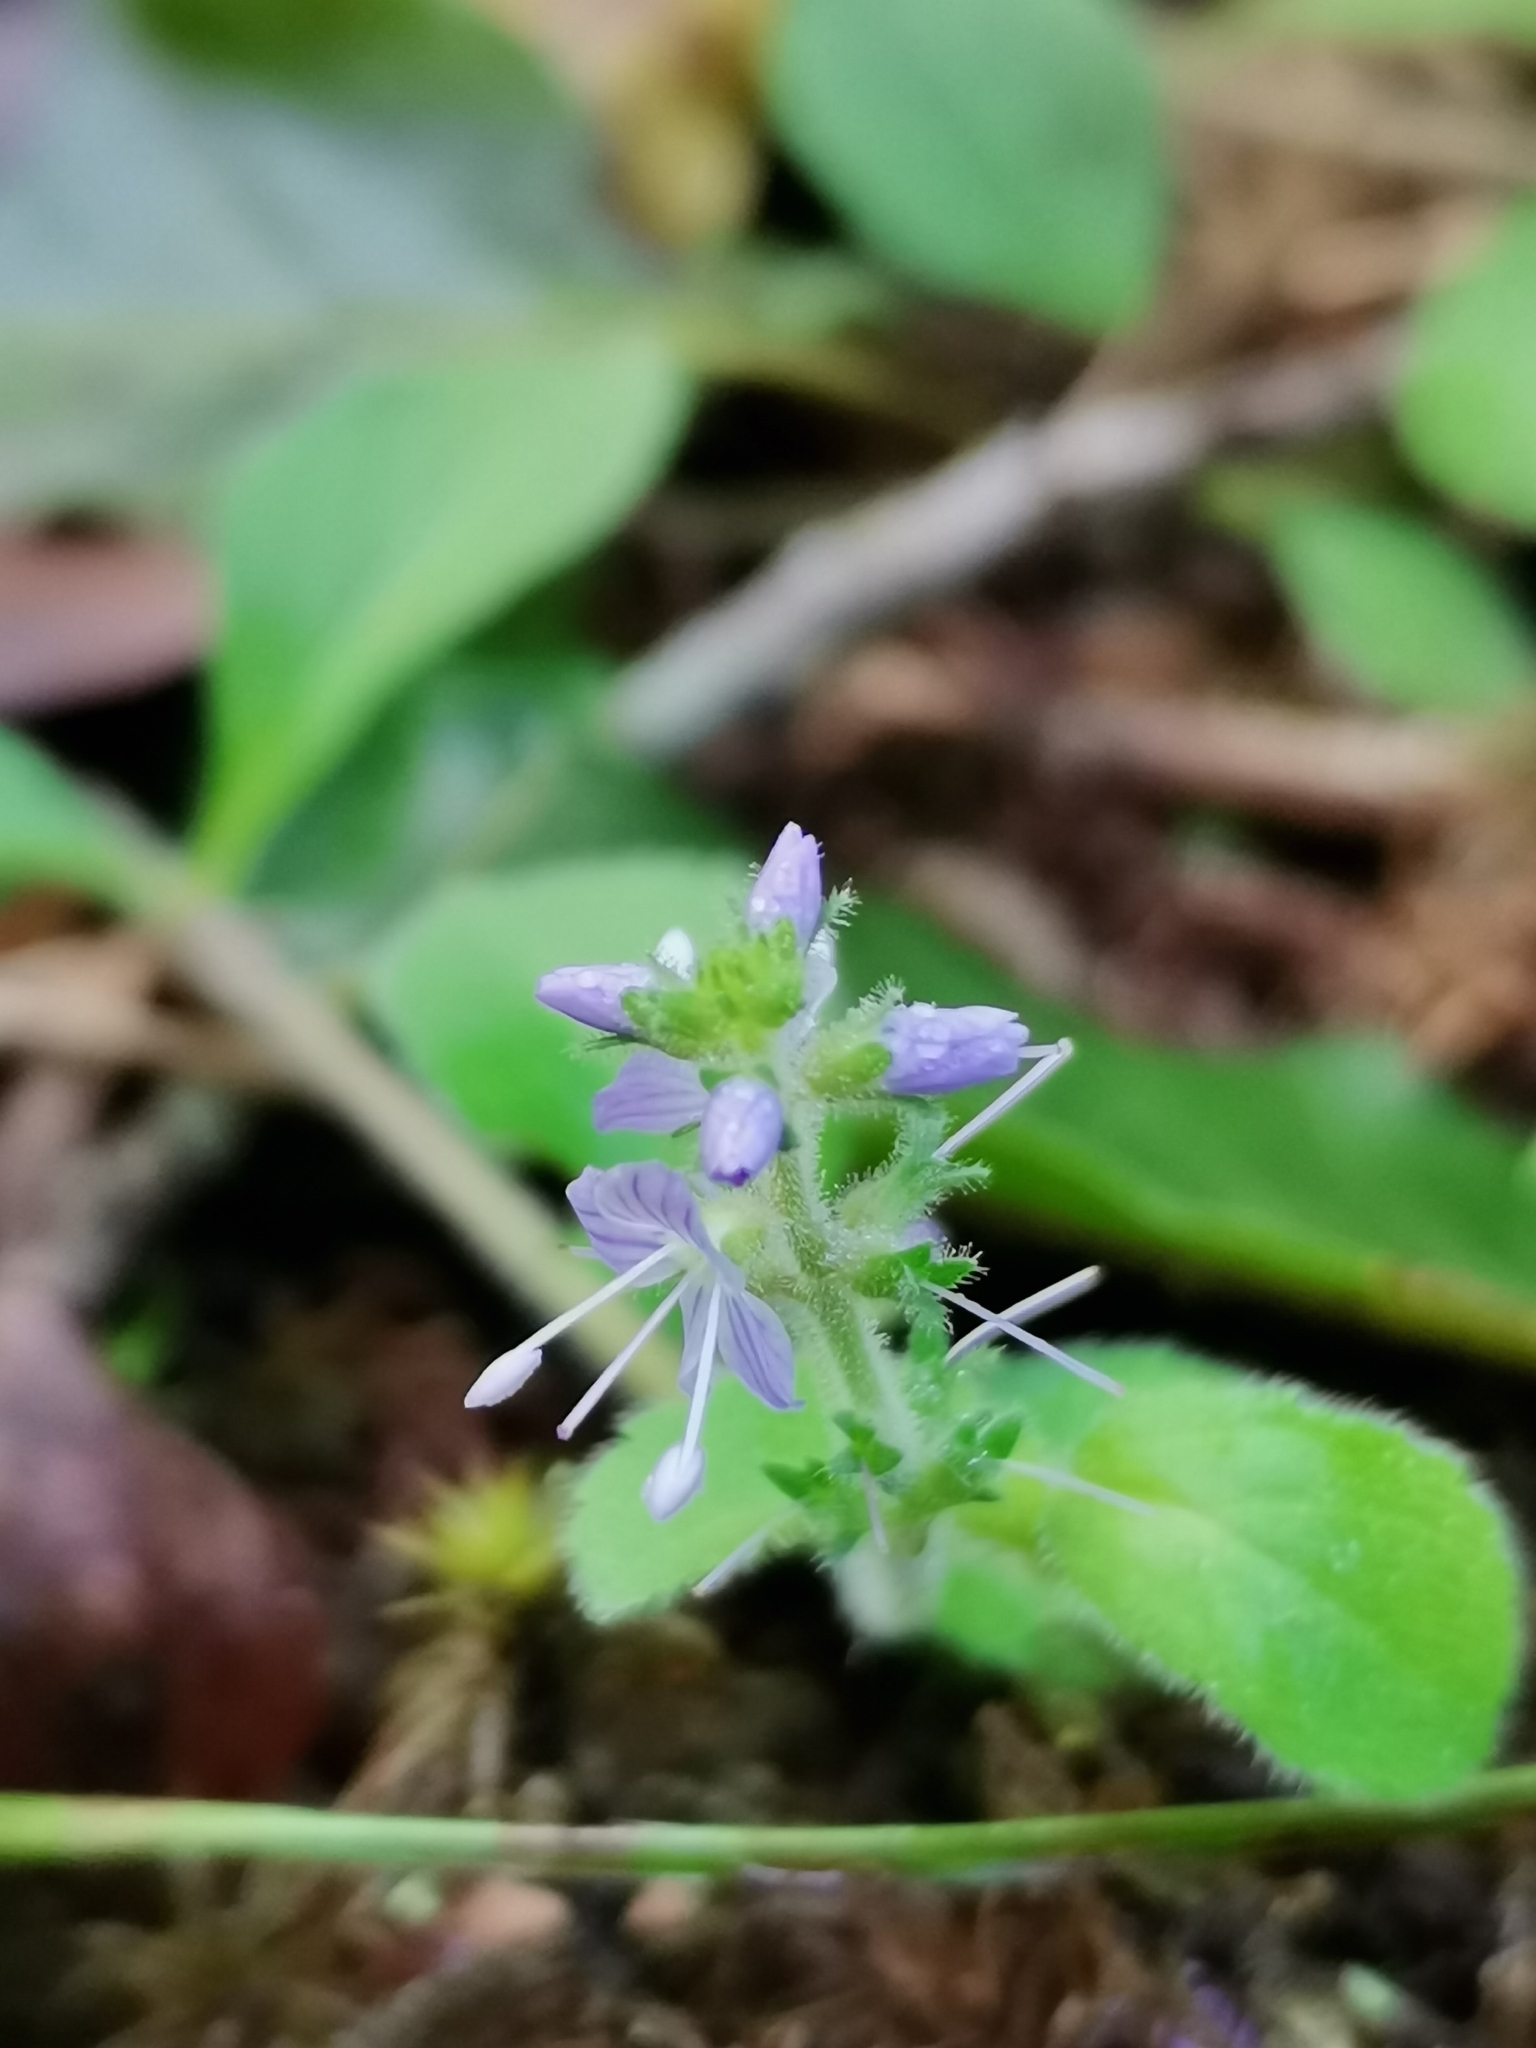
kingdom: Plantae
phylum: Tracheophyta
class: Magnoliopsida
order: Lamiales
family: Plantaginaceae
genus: Veronica
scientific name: Veronica officinalis
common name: Common speedwell
